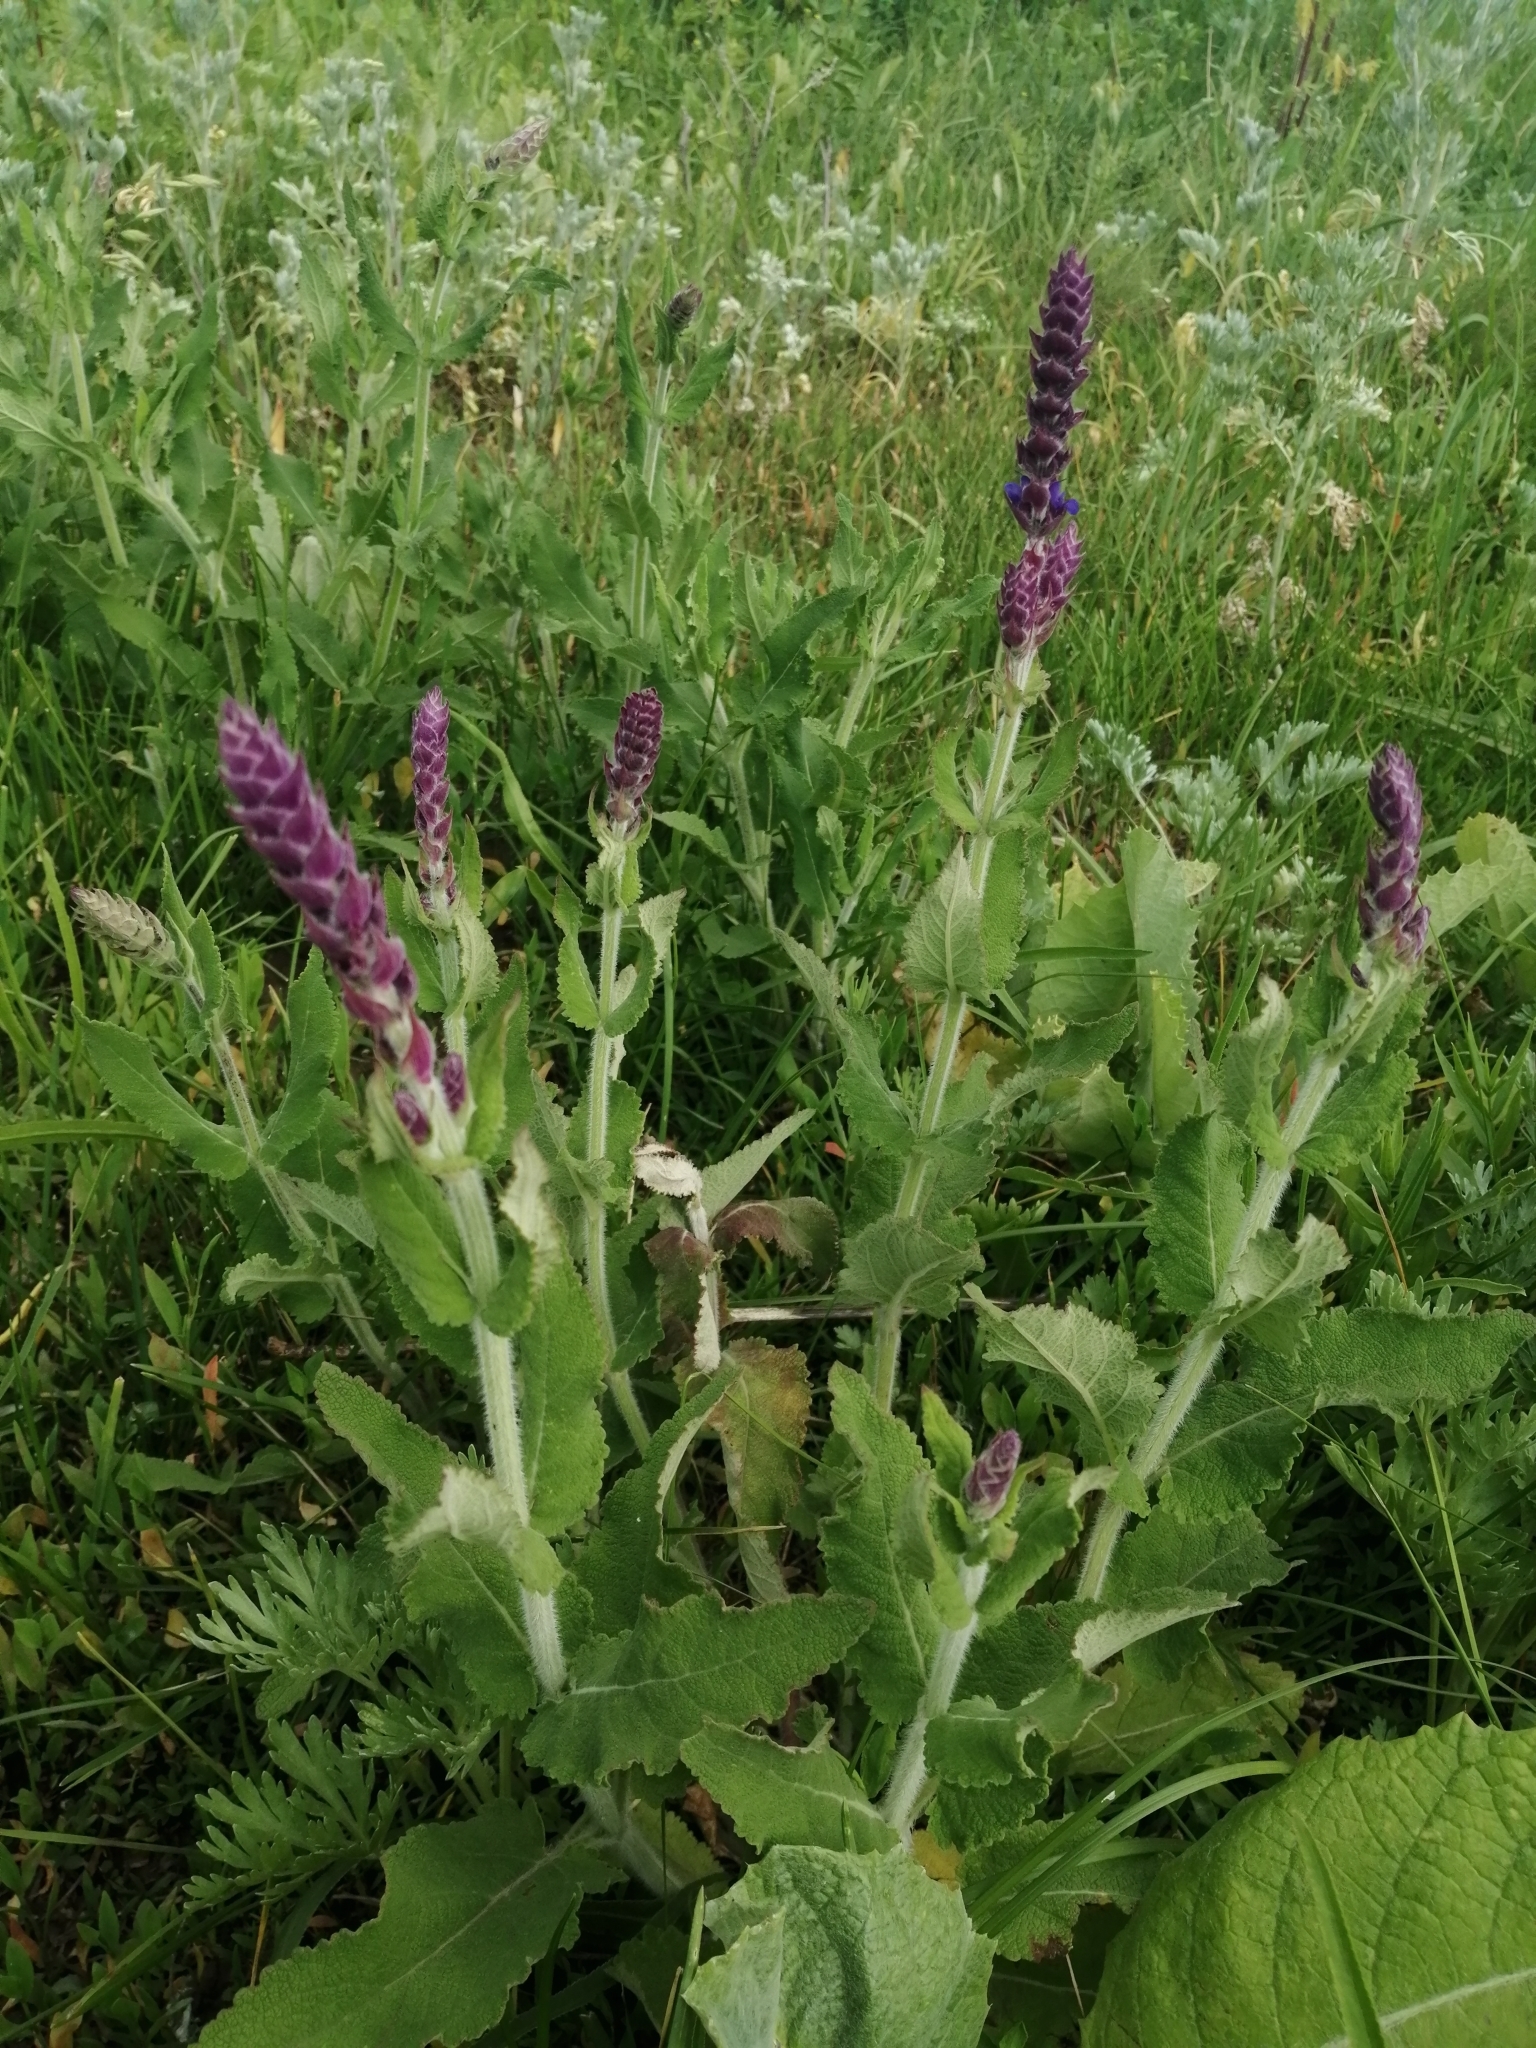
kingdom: Plantae
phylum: Tracheophyta
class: Magnoliopsida
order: Lamiales
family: Lamiaceae
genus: Salvia
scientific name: Salvia nemorosa
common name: Balkan clary
